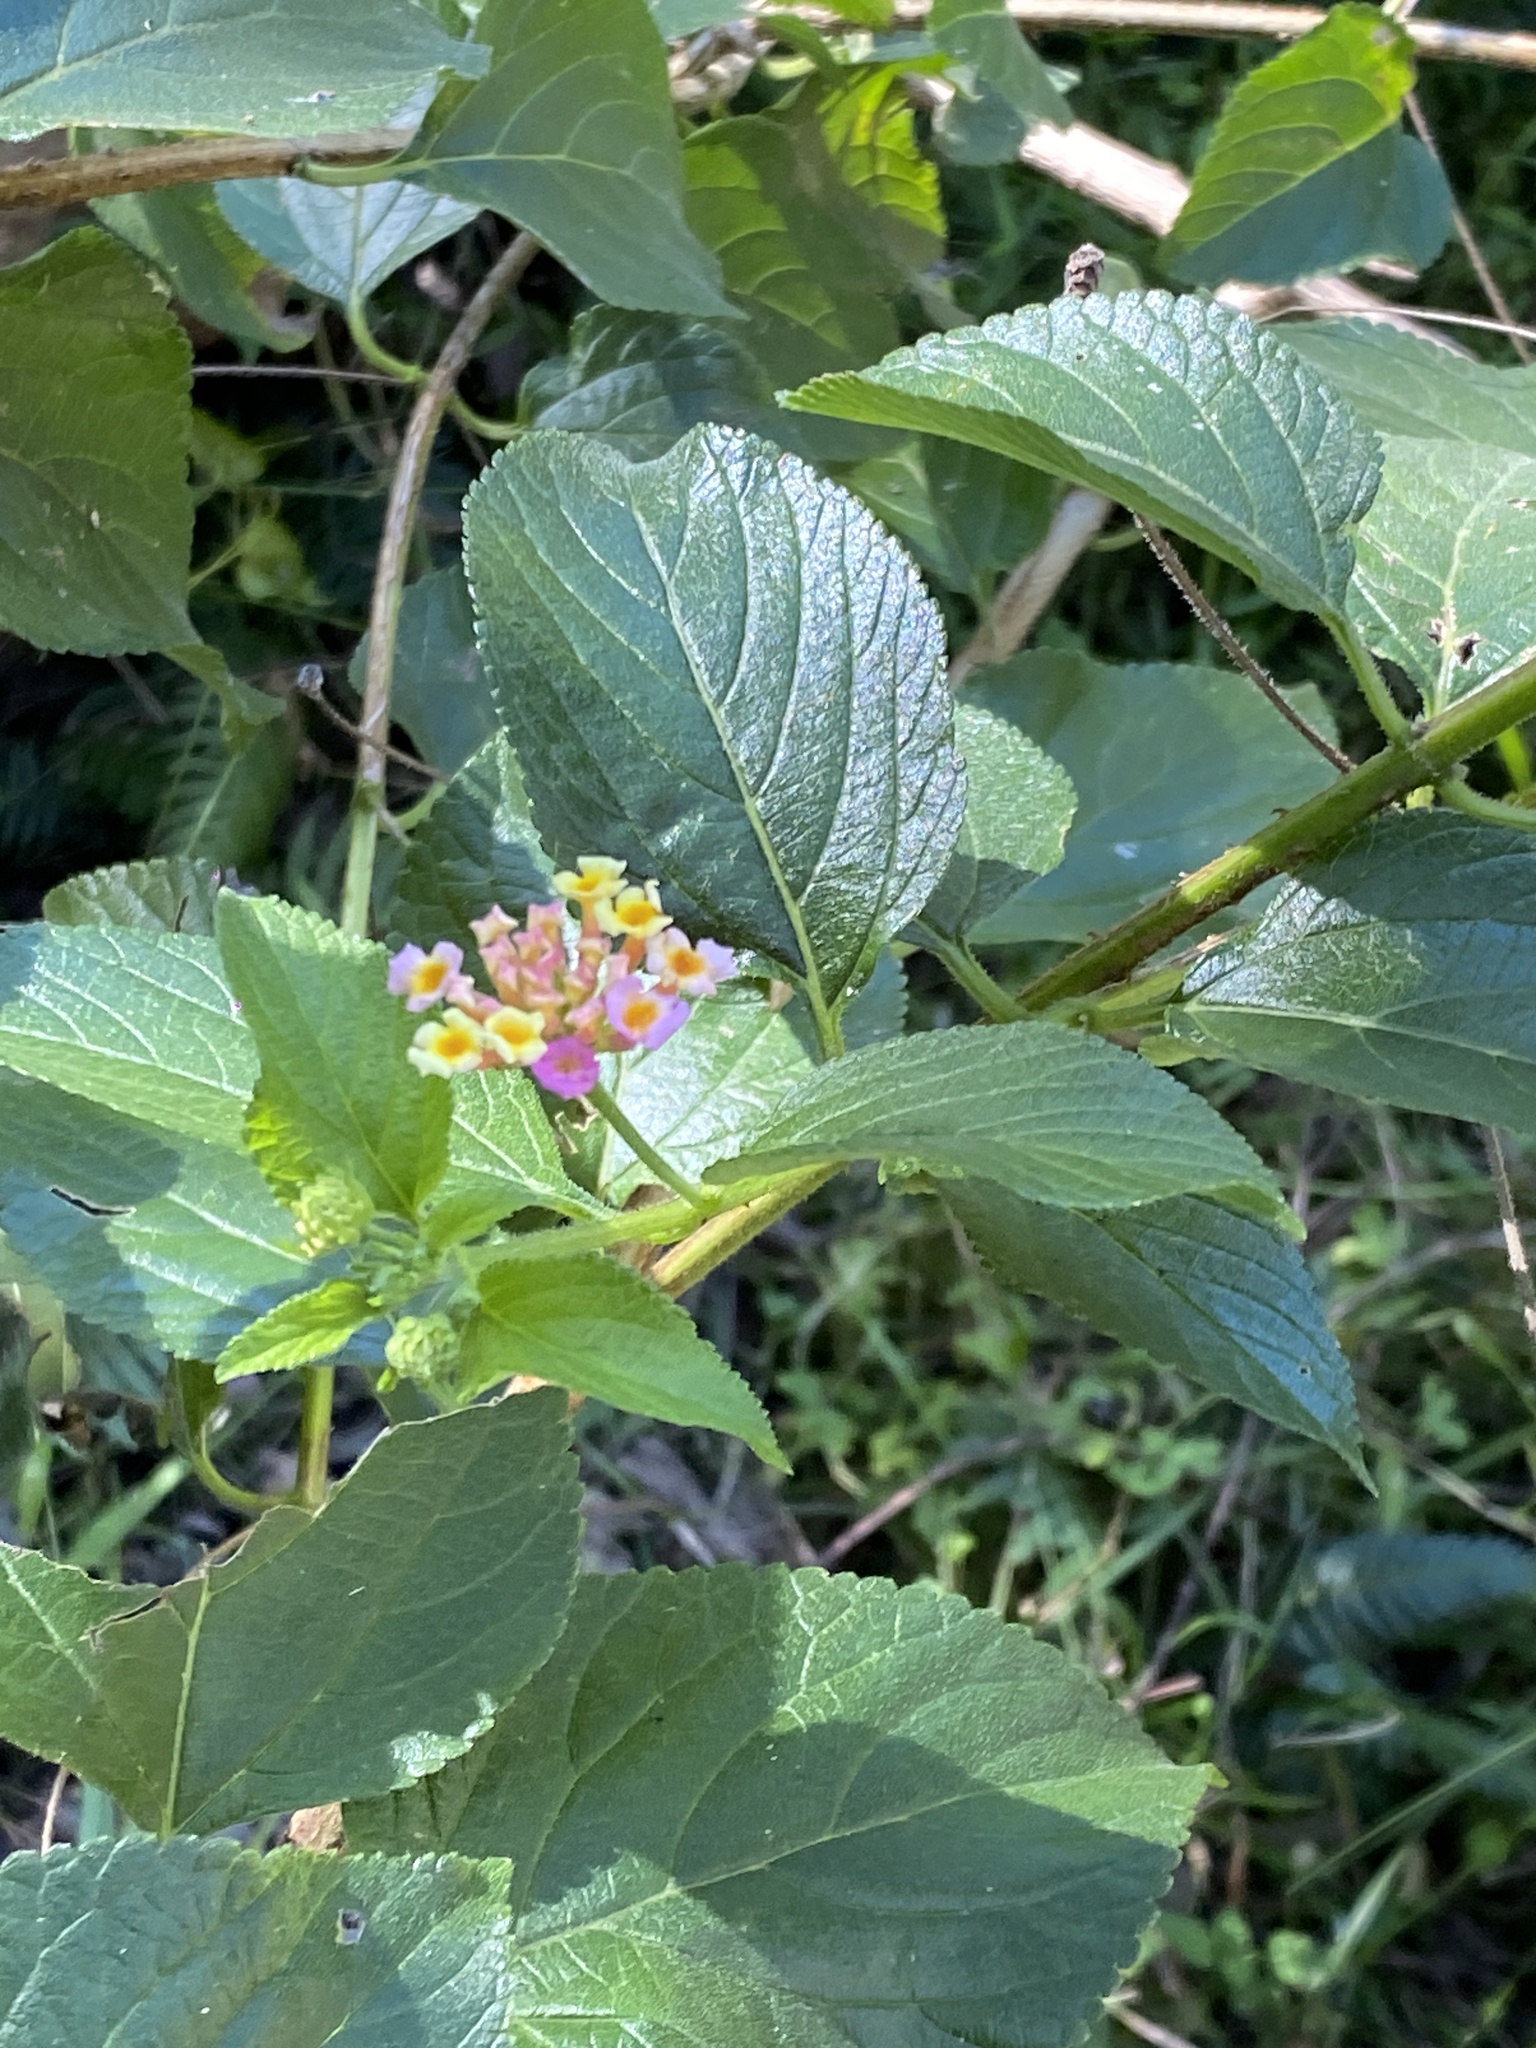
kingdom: Plantae
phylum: Tracheophyta
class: Magnoliopsida
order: Lamiales
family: Verbenaceae
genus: Lantana
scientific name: Lantana camara
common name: Lantana
